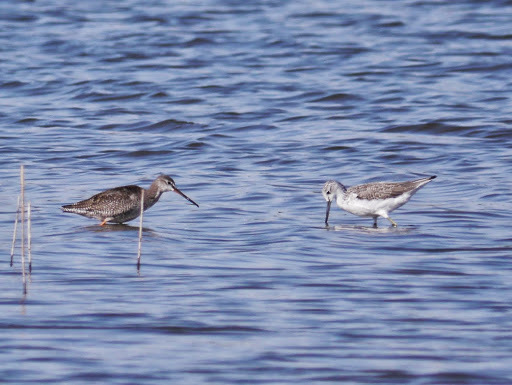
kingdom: Animalia
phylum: Chordata
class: Aves
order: Charadriiformes
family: Scolopacidae
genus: Tringa
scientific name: Tringa erythropus
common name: Spotted redshank
